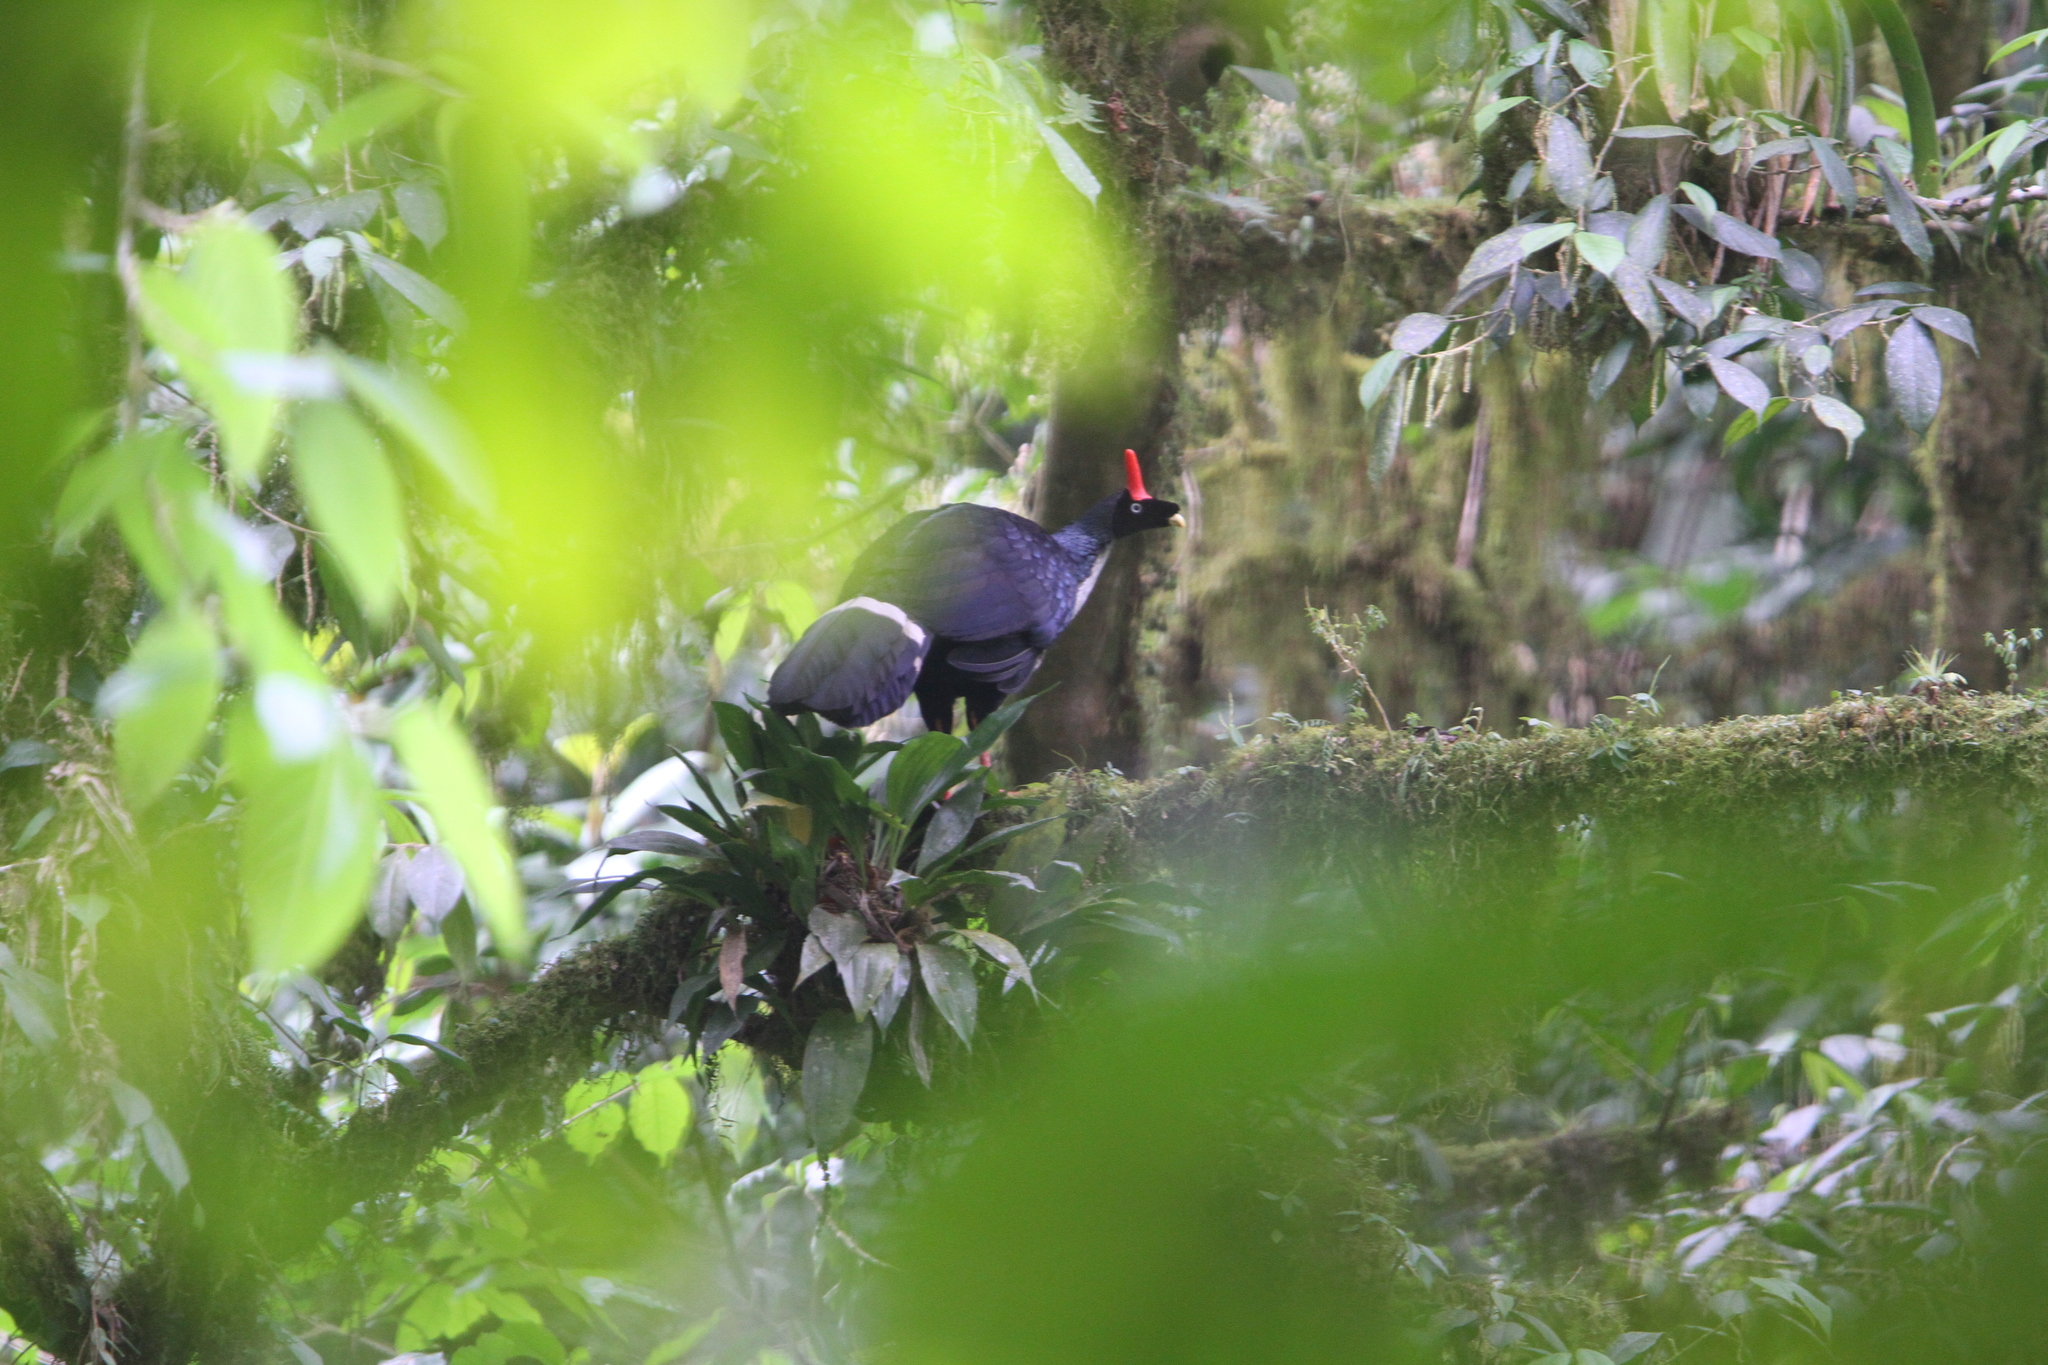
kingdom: Animalia
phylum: Chordata
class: Aves
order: Galliformes
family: Cracidae
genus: Oreophasis
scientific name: Oreophasis derbianus
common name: Horned guan
